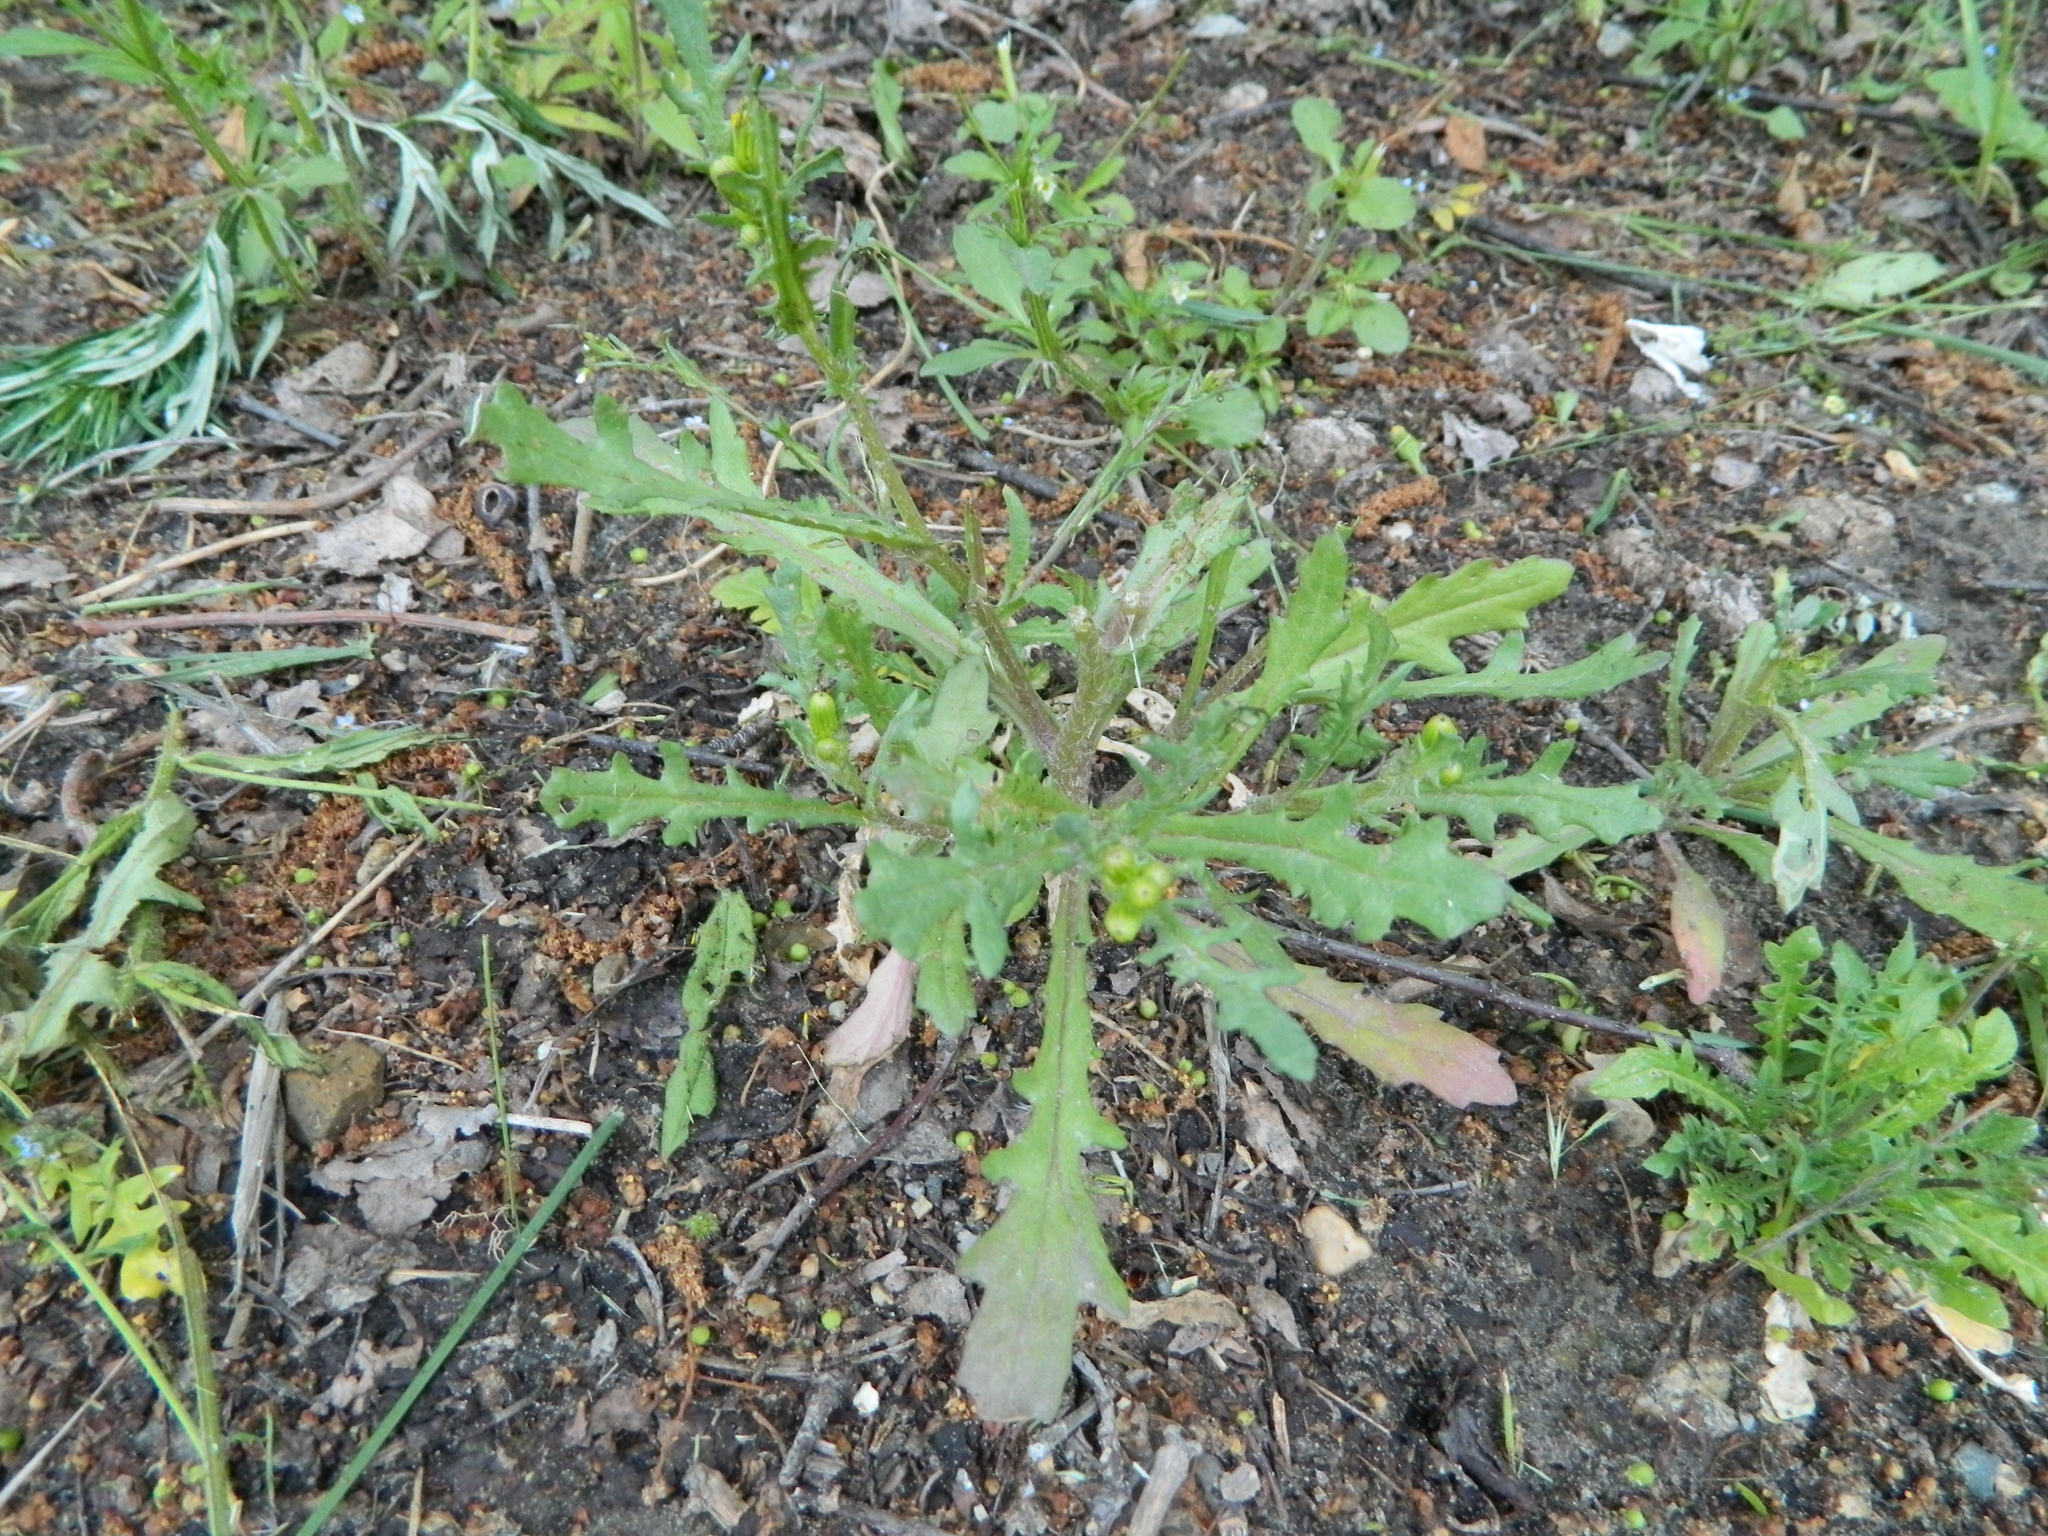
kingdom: Plantae
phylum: Tracheophyta
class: Magnoliopsida
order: Asterales
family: Asteraceae
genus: Senecio
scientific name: Senecio dubitabilis
